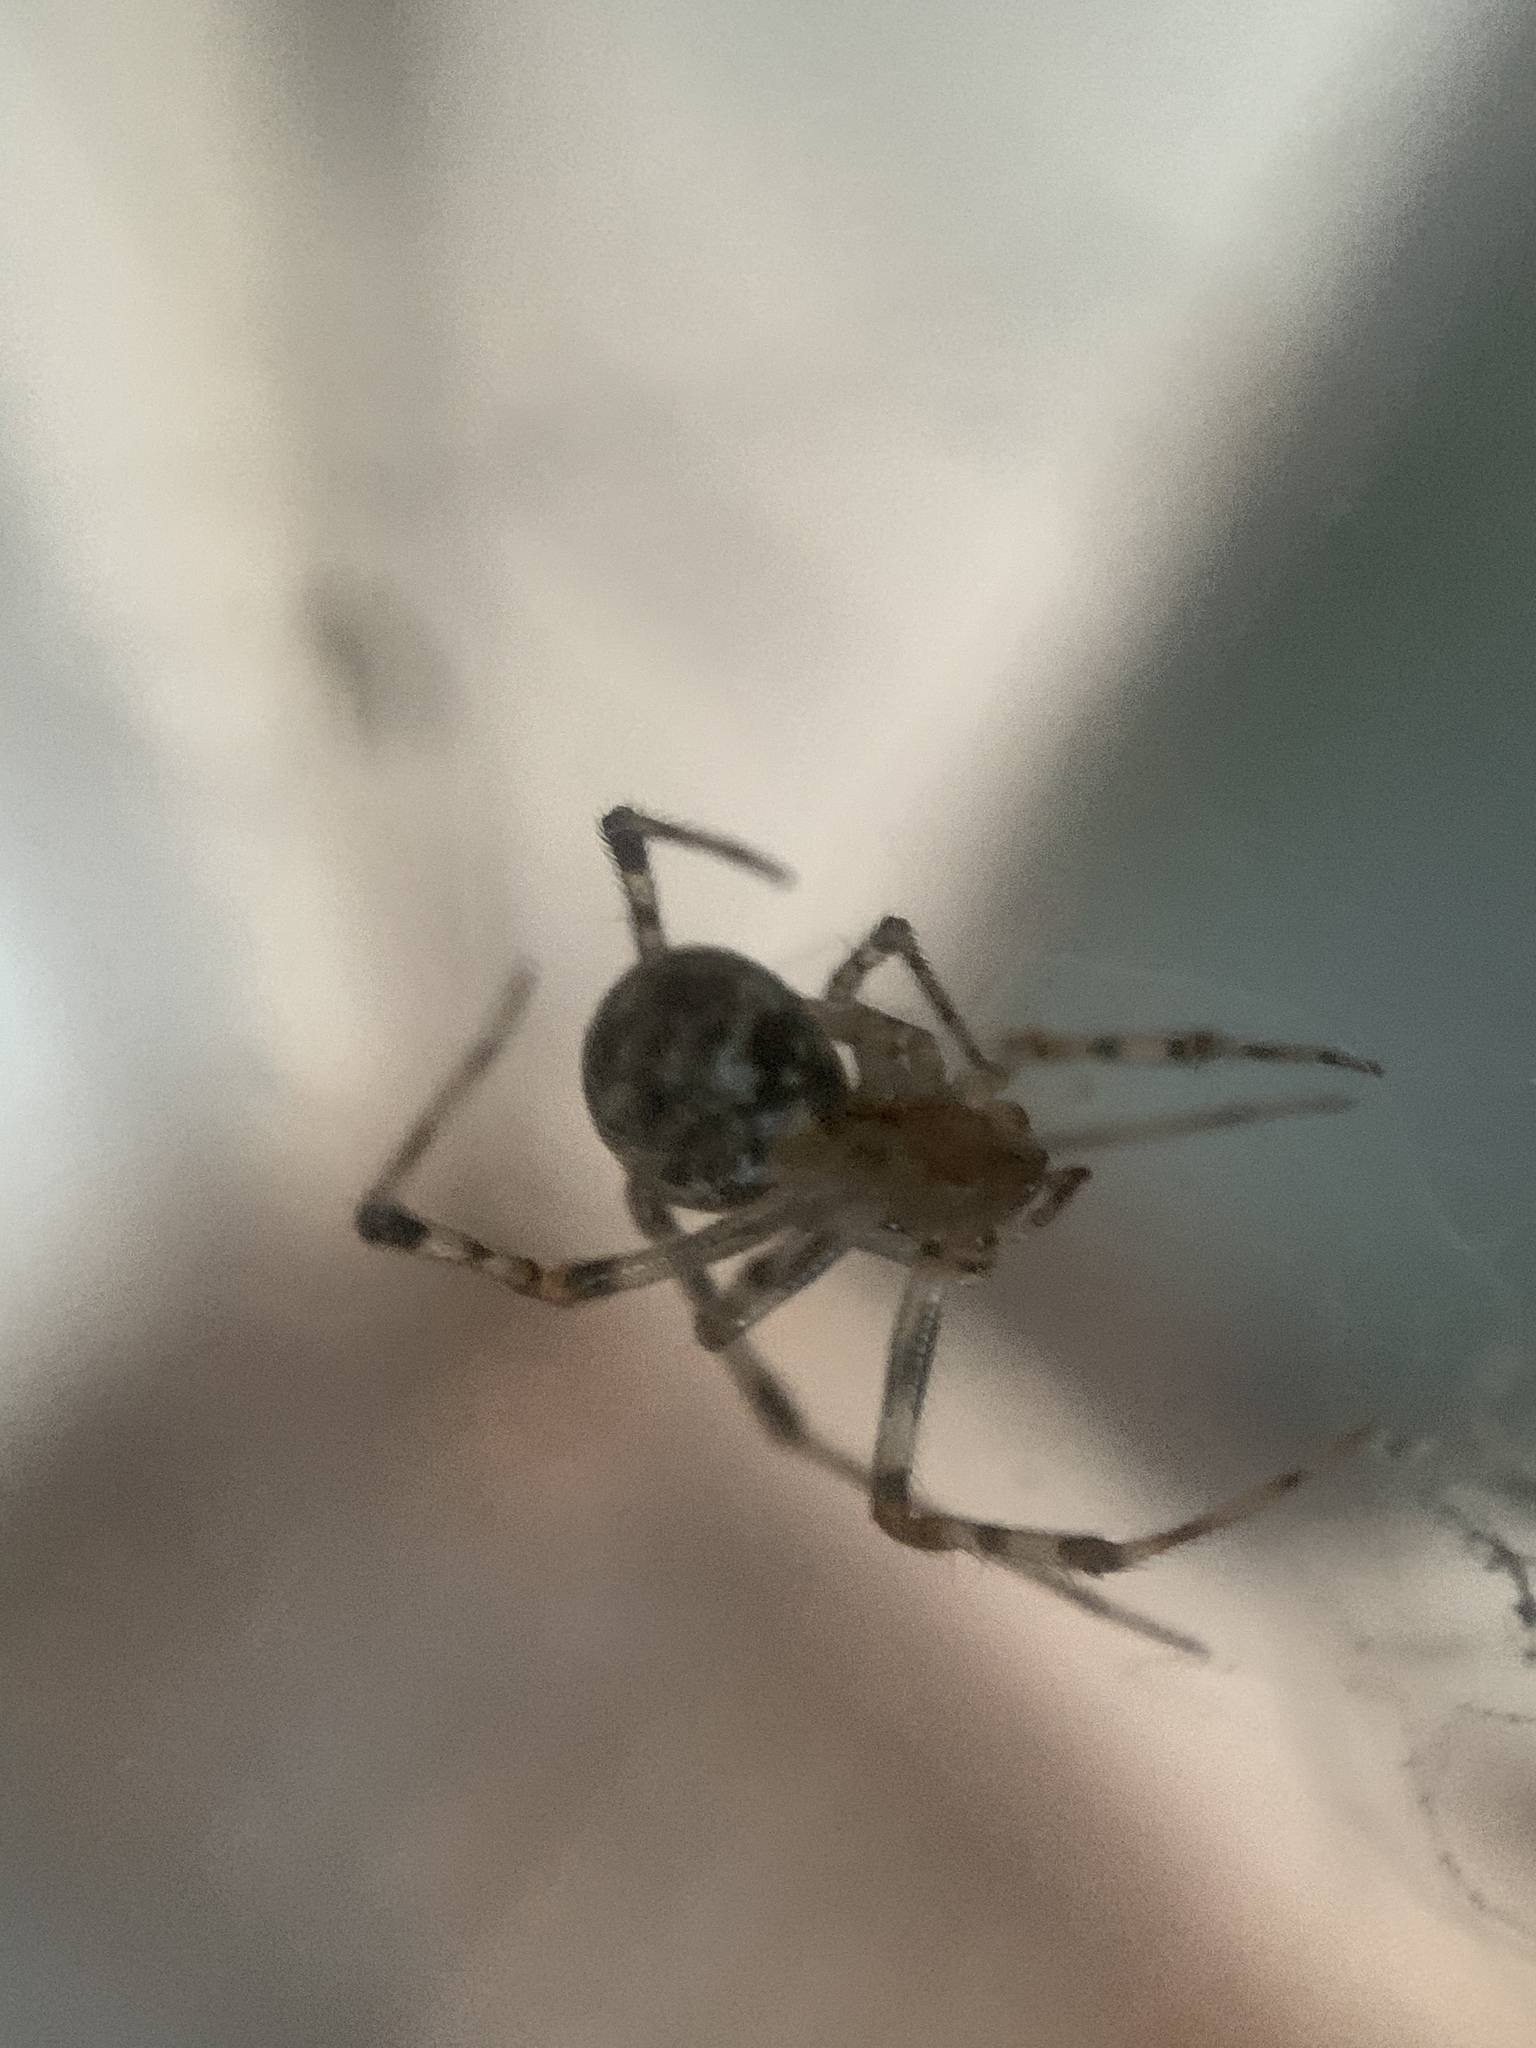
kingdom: Animalia
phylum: Arthropoda
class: Arachnida
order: Araneae
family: Theridiidae
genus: Parasteatoda
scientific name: Parasteatoda tepidariorum
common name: Common house spider
